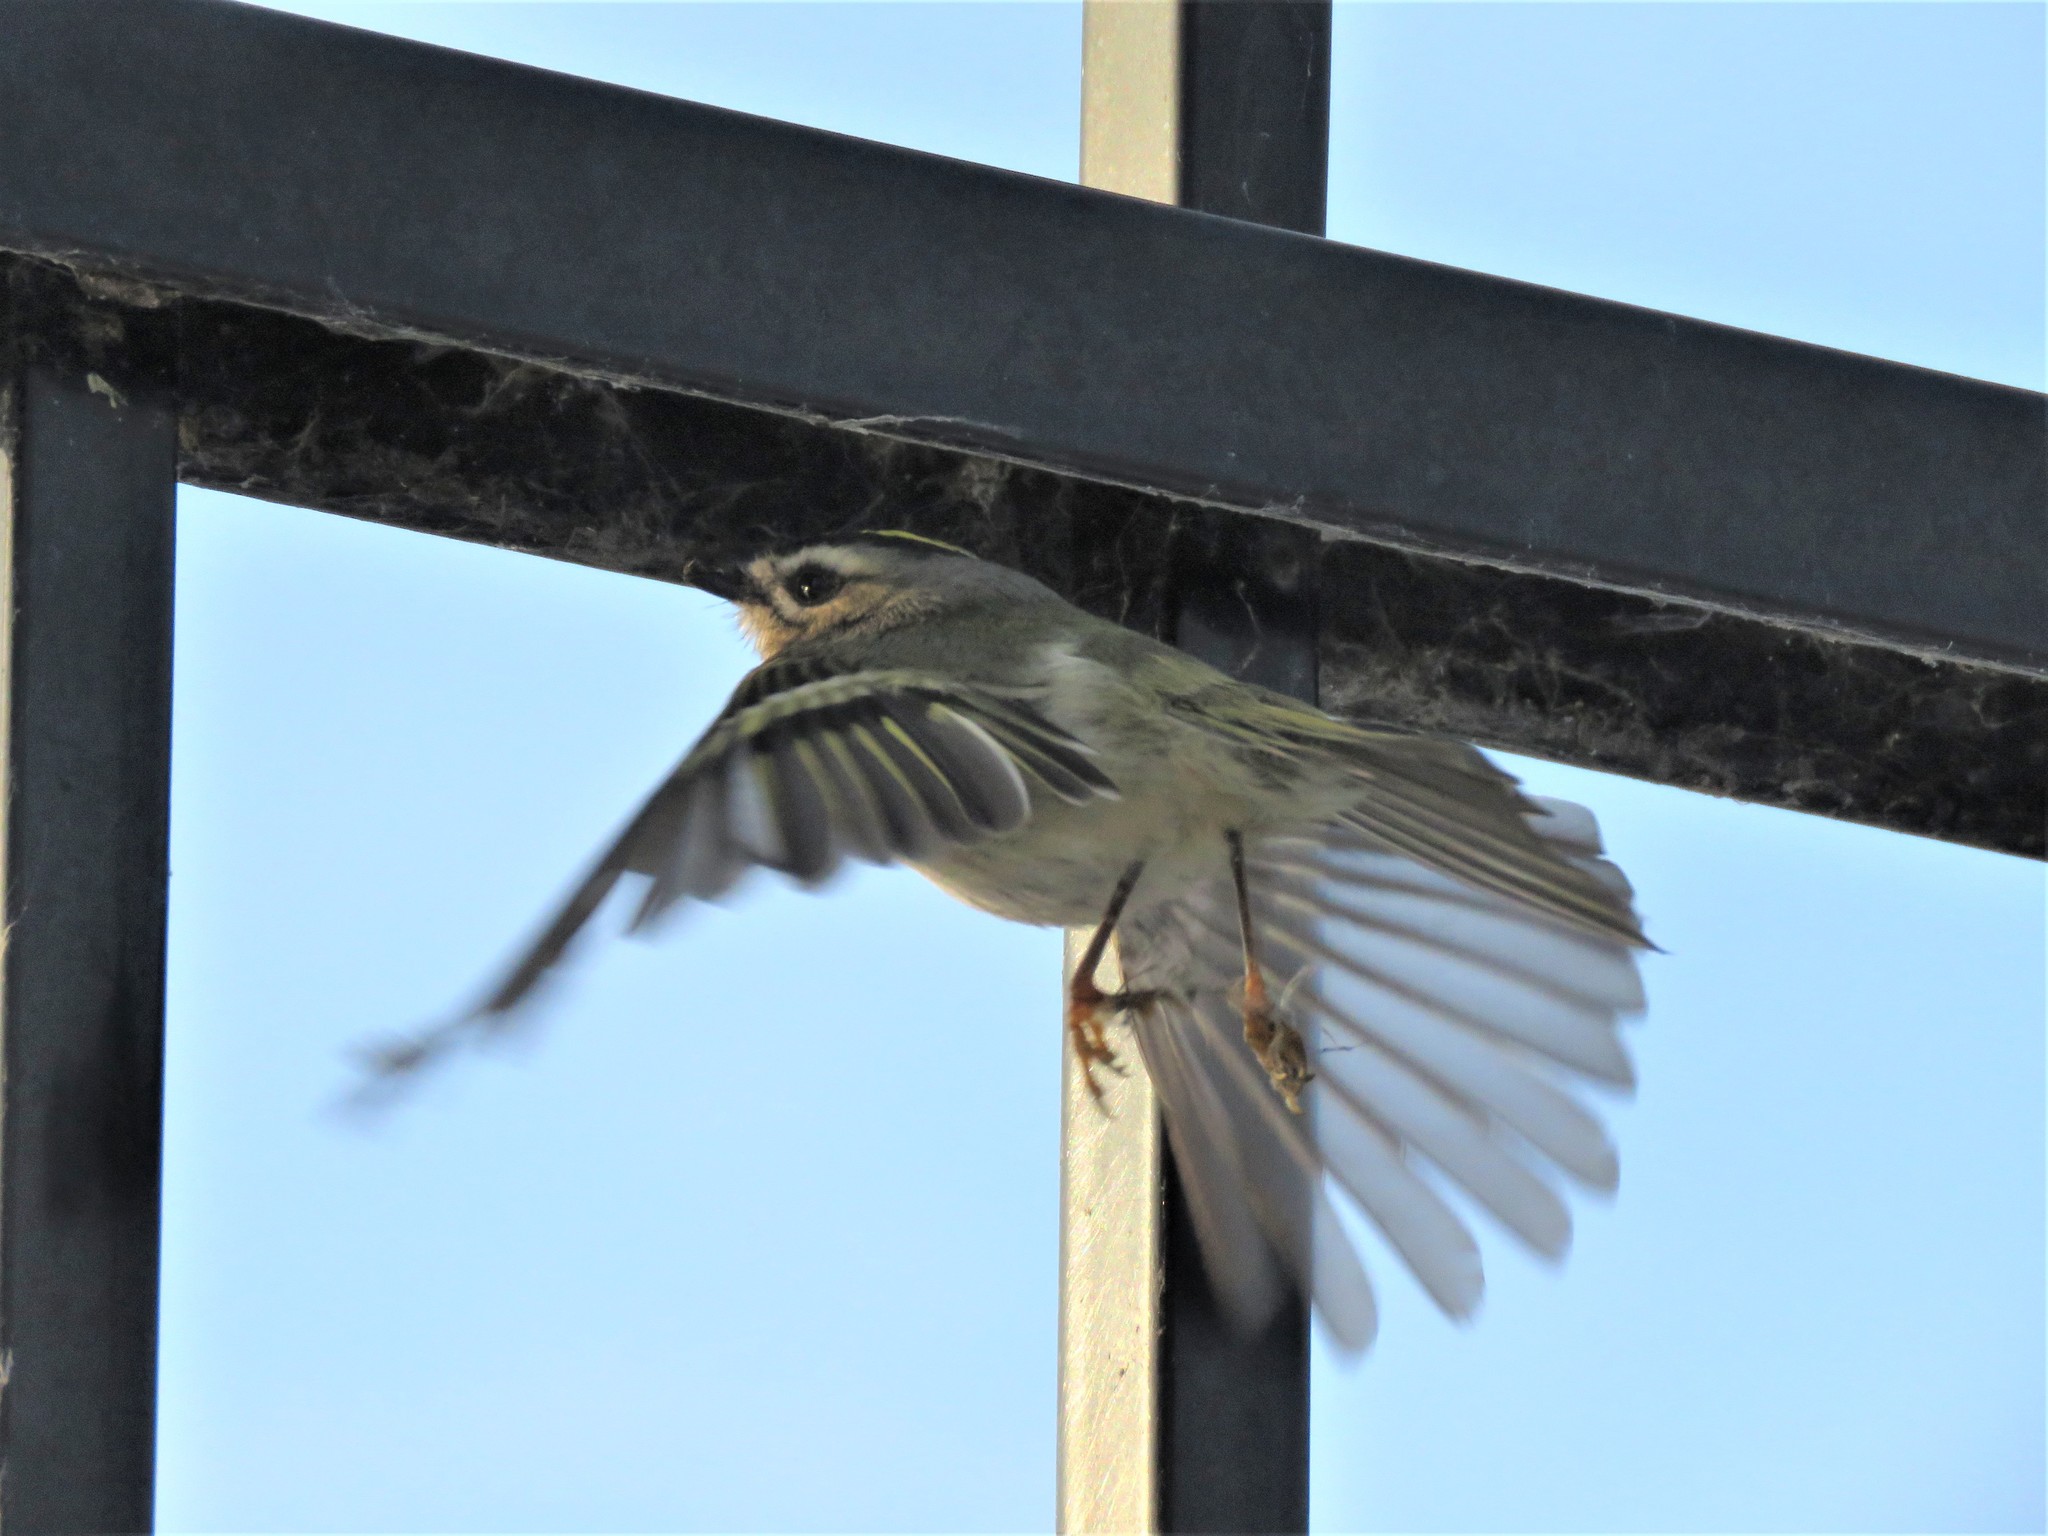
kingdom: Animalia
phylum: Chordata
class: Aves
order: Passeriformes
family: Regulidae
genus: Regulus
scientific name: Regulus satrapa
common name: Golden-crowned kinglet
